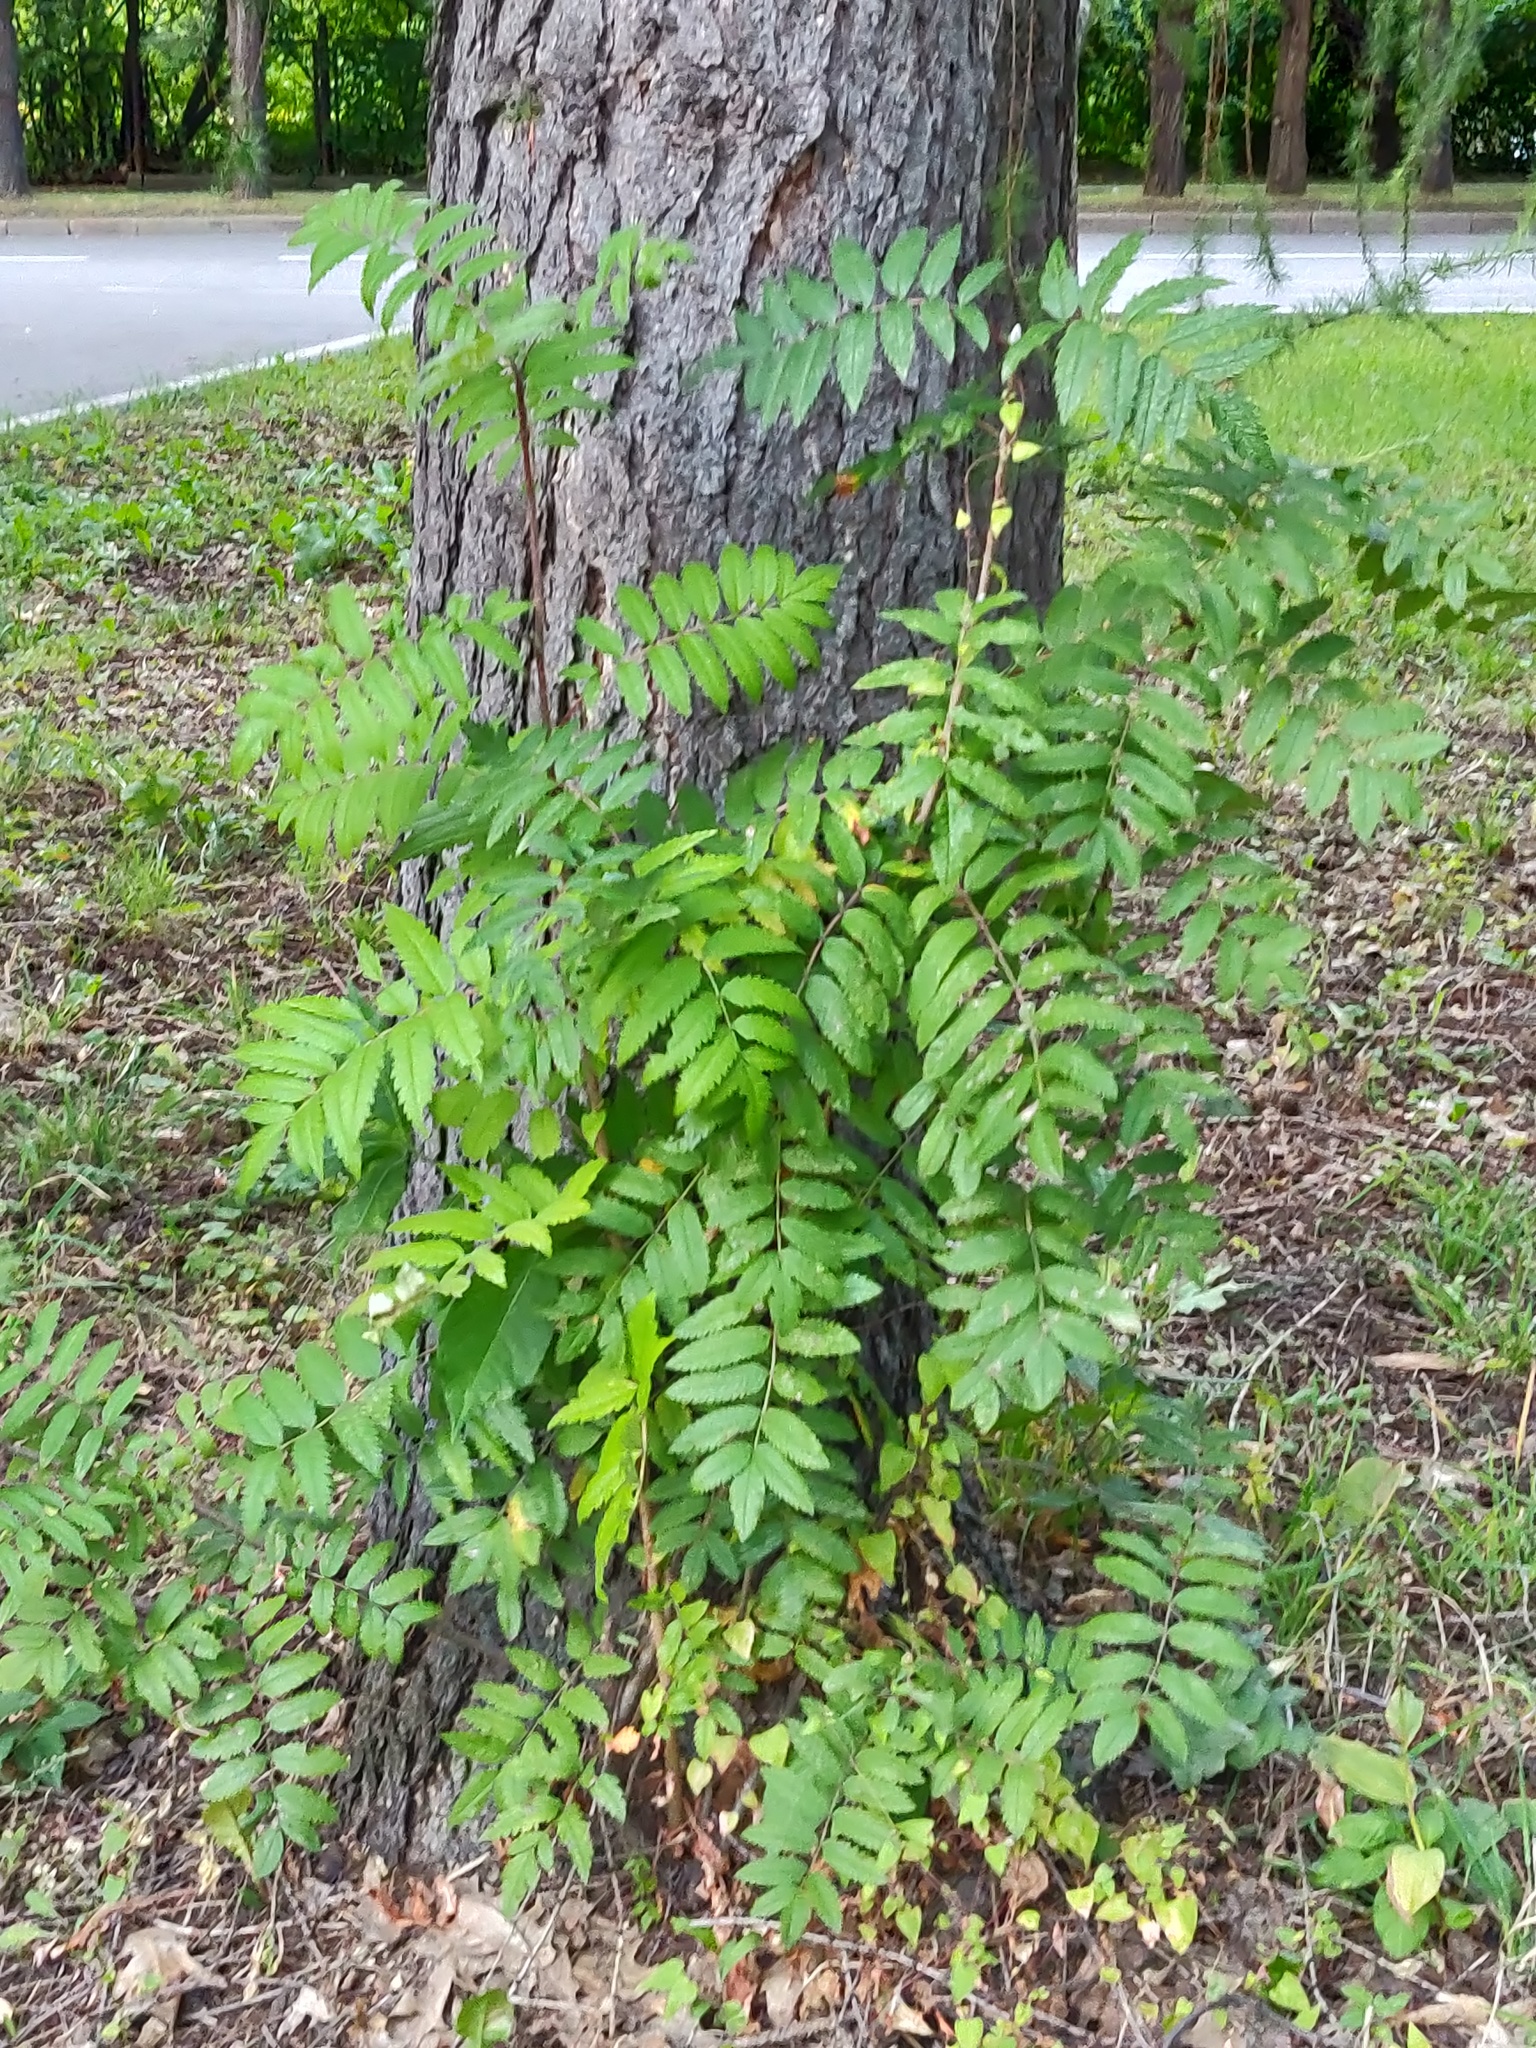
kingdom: Plantae
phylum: Tracheophyta
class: Magnoliopsida
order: Rosales
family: Rosaceae
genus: Sorbus
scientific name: Sorbus aucuparia
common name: Rowan
